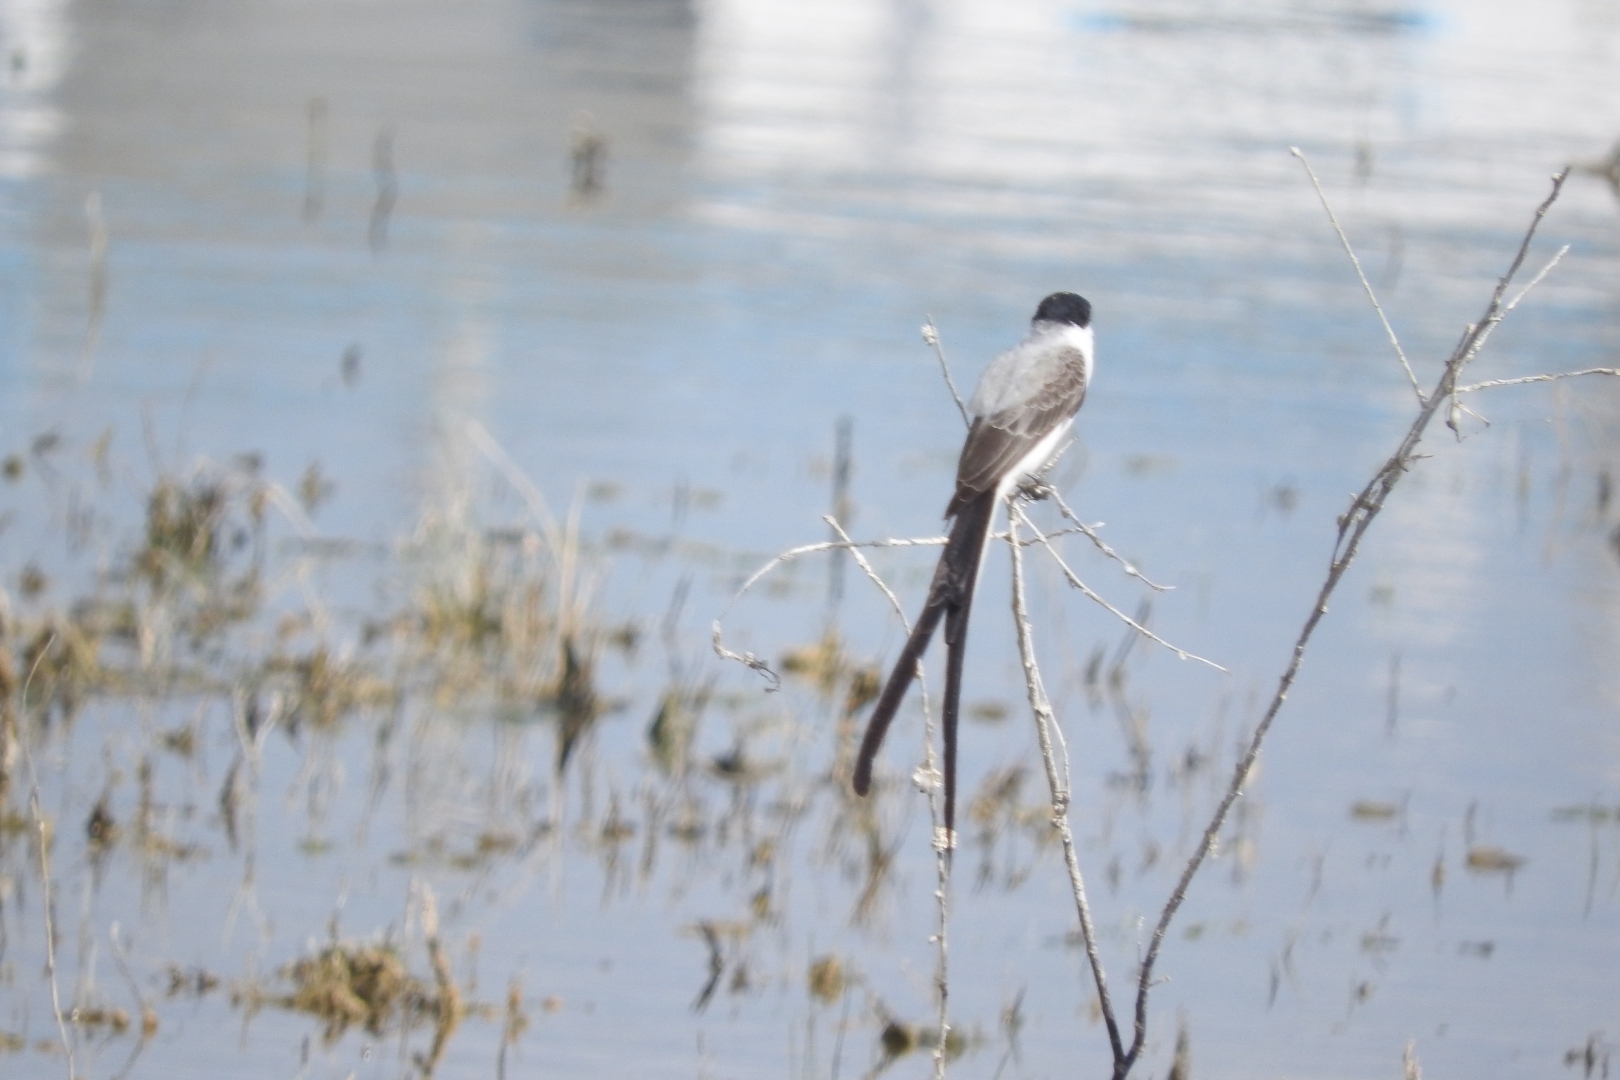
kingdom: Animalia
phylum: Chordata
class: Aves
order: Passeriformes
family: Tyrannidae
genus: Tyrannus
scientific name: Tyrannus savana
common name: Fork-tailed flycatcher
